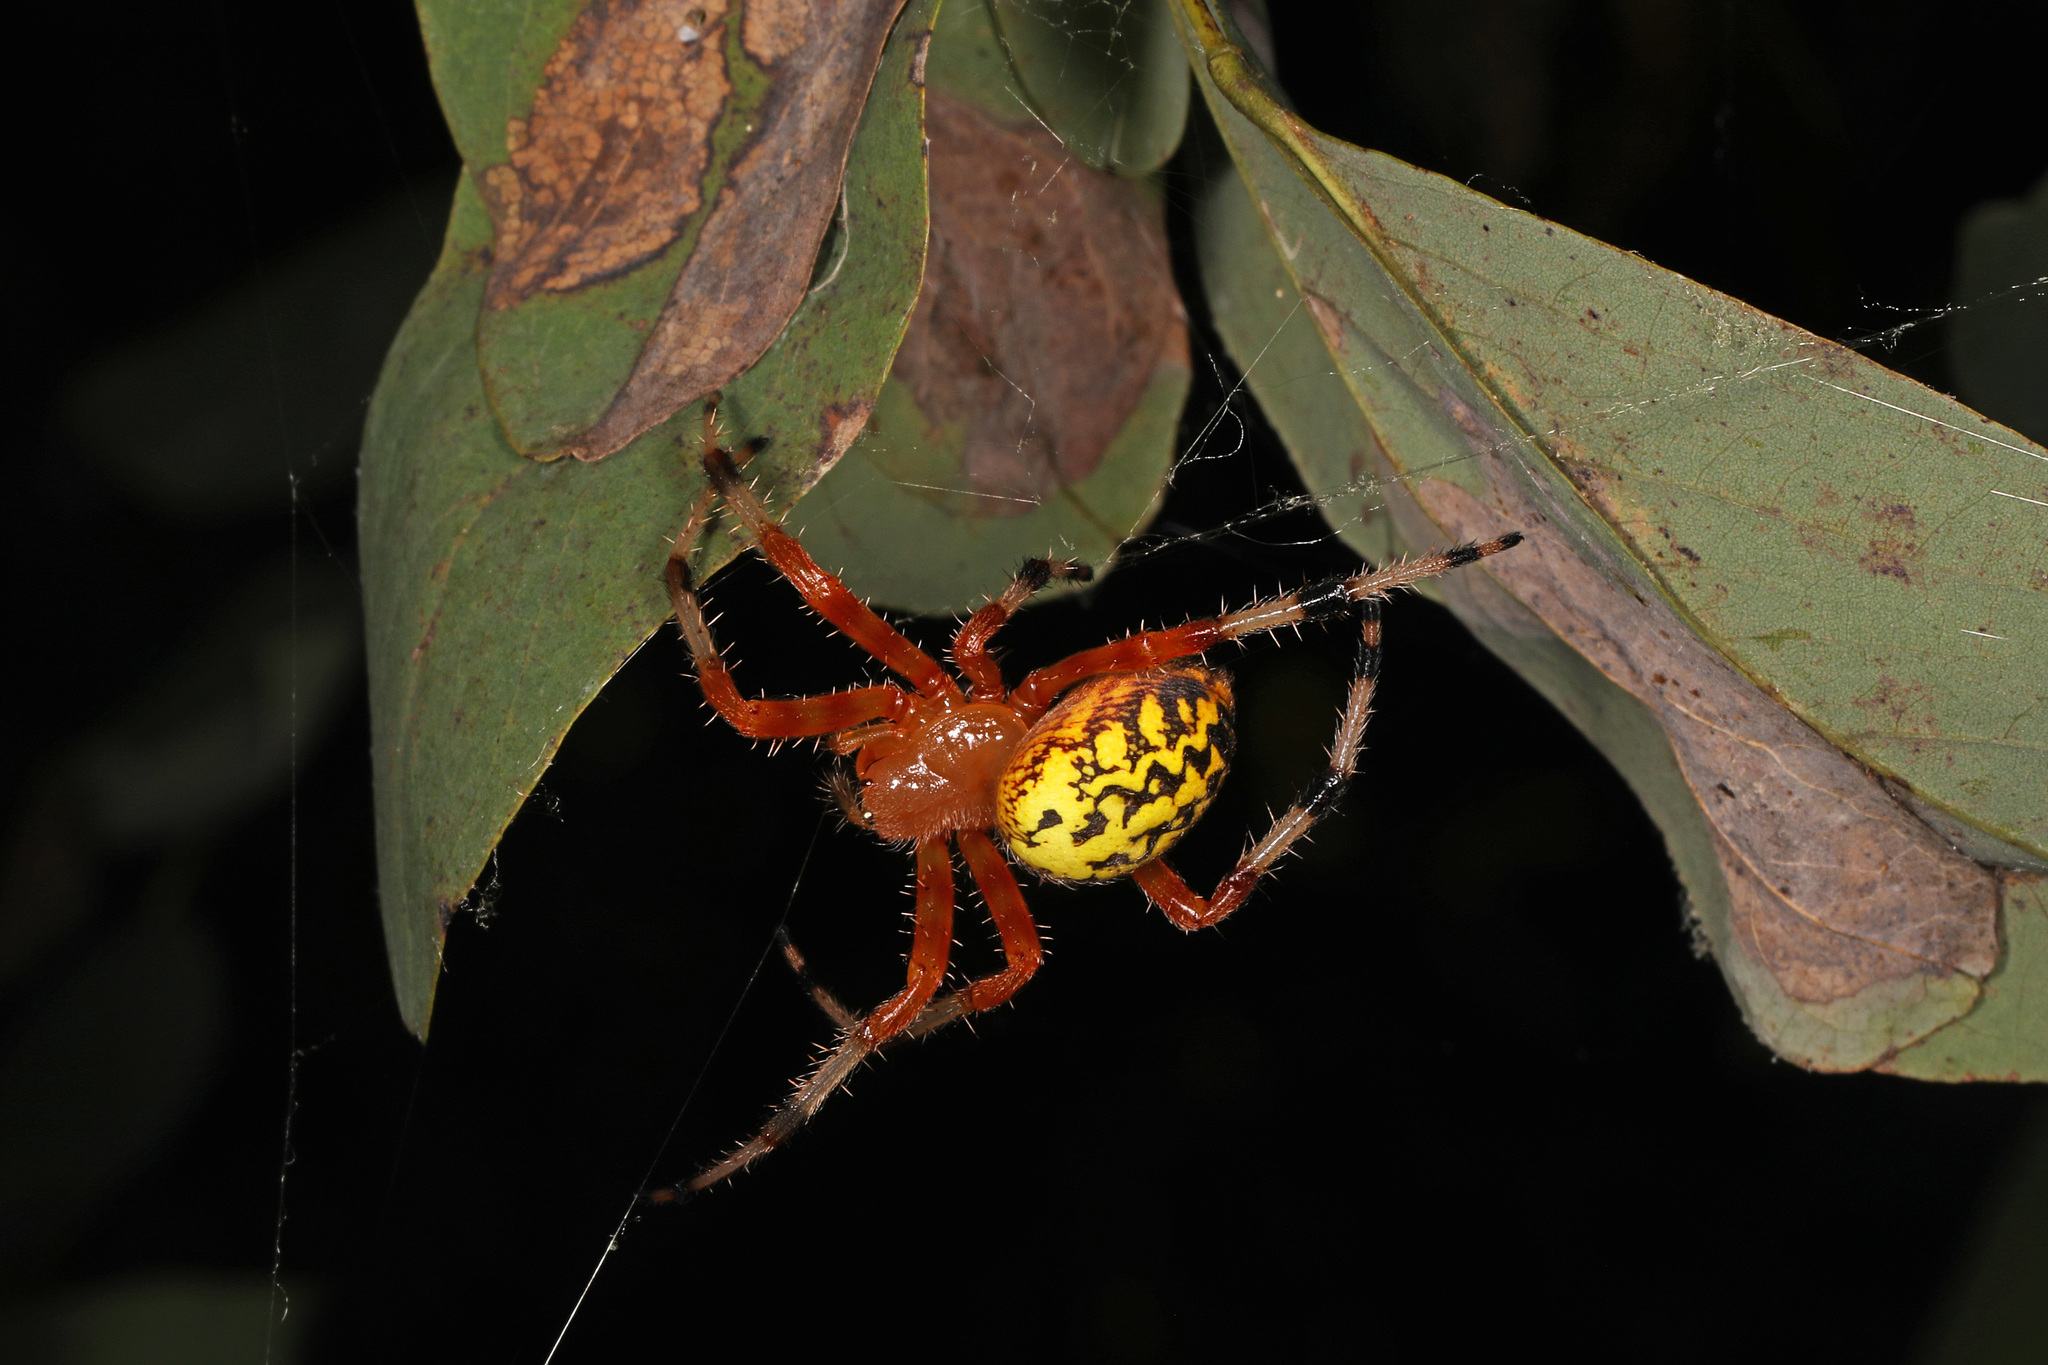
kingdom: Animalia
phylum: Arthropoda
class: Arachnida
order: Araneae
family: Araneidae
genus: Araneus
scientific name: Araneus marmoreus
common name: Marbled orbweaver
